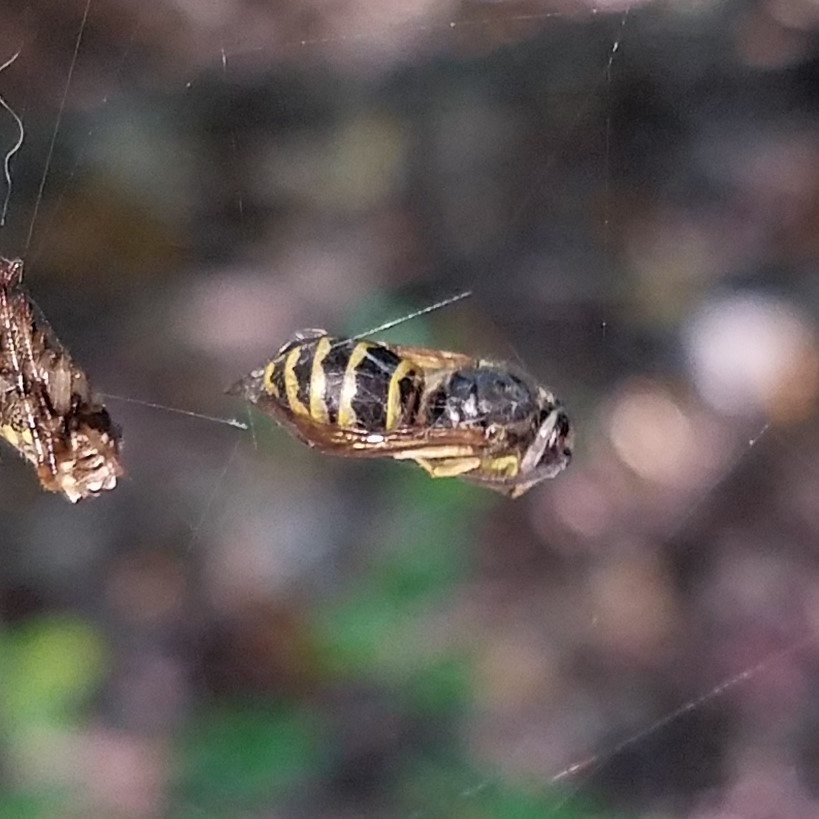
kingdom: Animalia
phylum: Arthropoda
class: Insecta
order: Hymenoptera
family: Vespidae
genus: Vespula
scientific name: Vespula maculifrons
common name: Eastern yellowjacket
